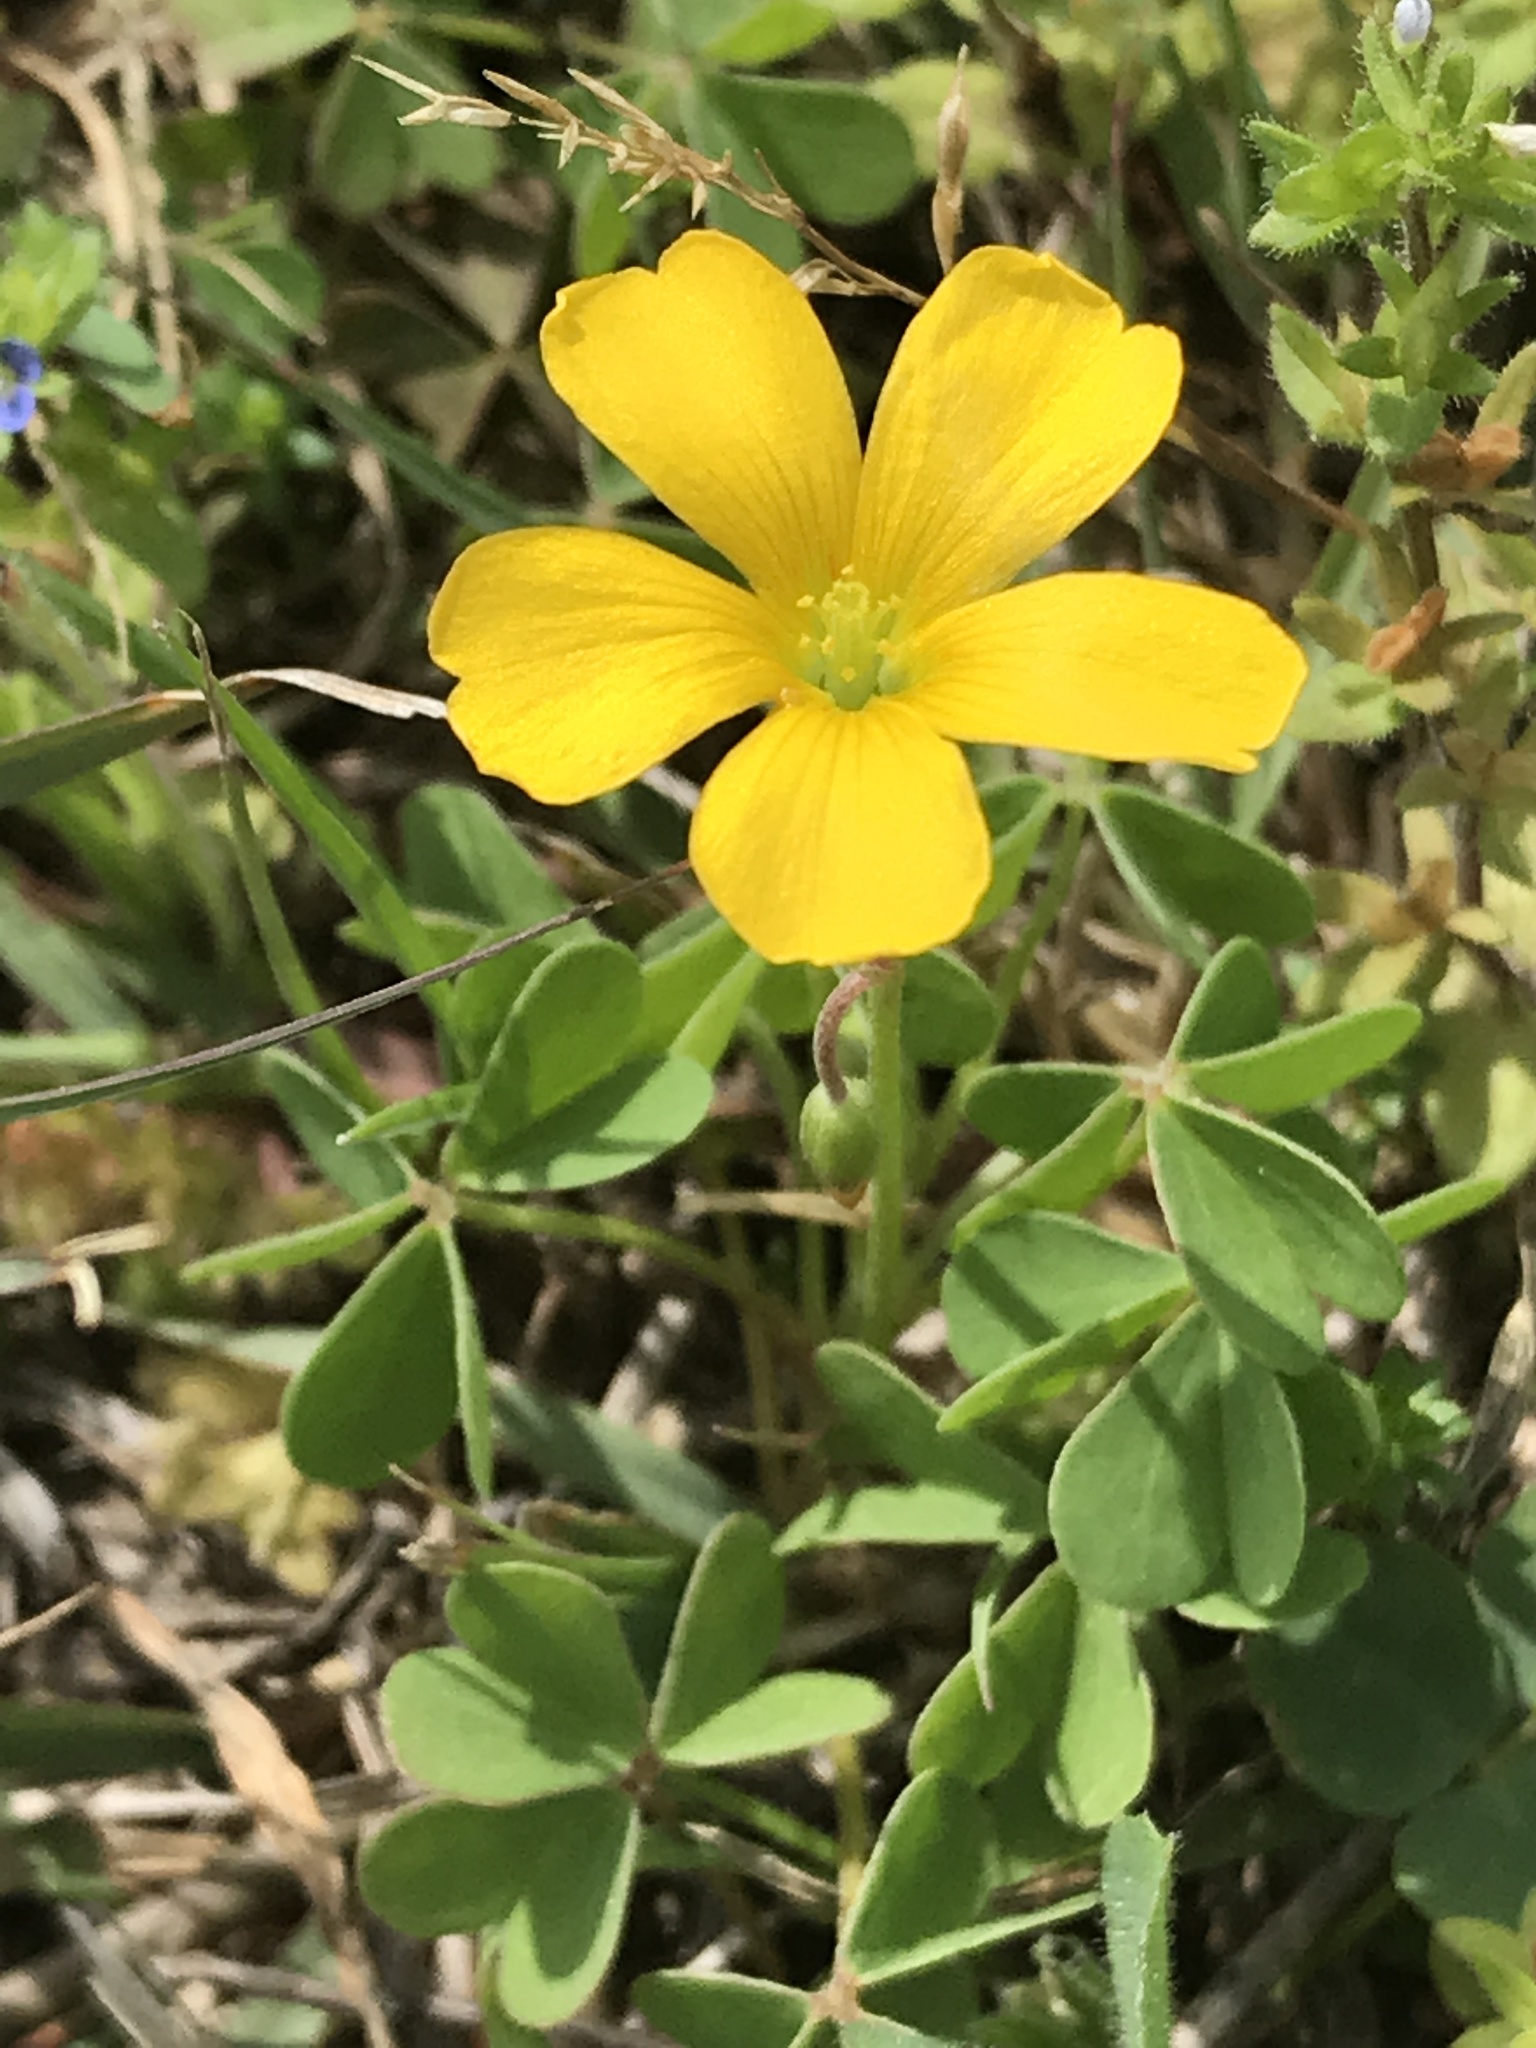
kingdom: Plantae
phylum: Tracheophyta
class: Magnoliopsida
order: Oxalidales
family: Oxalidaceae
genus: Oxalis
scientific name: Oxalis dillenii
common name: Sussex yellow-sorrel
